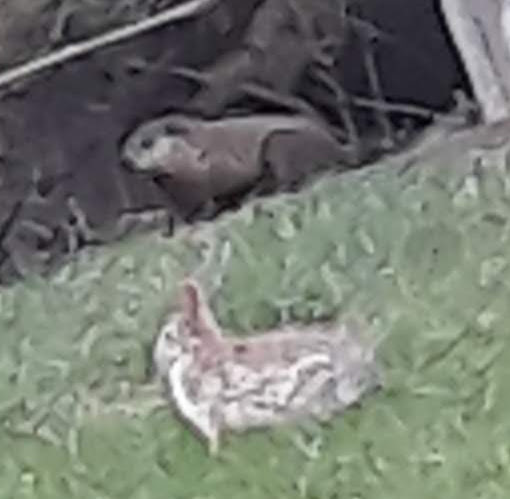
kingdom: Animalia
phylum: Chordata
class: Mammalia
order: Rodentia
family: Sciuridae
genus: Marmota
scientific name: Marmota monax
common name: Groundhog
